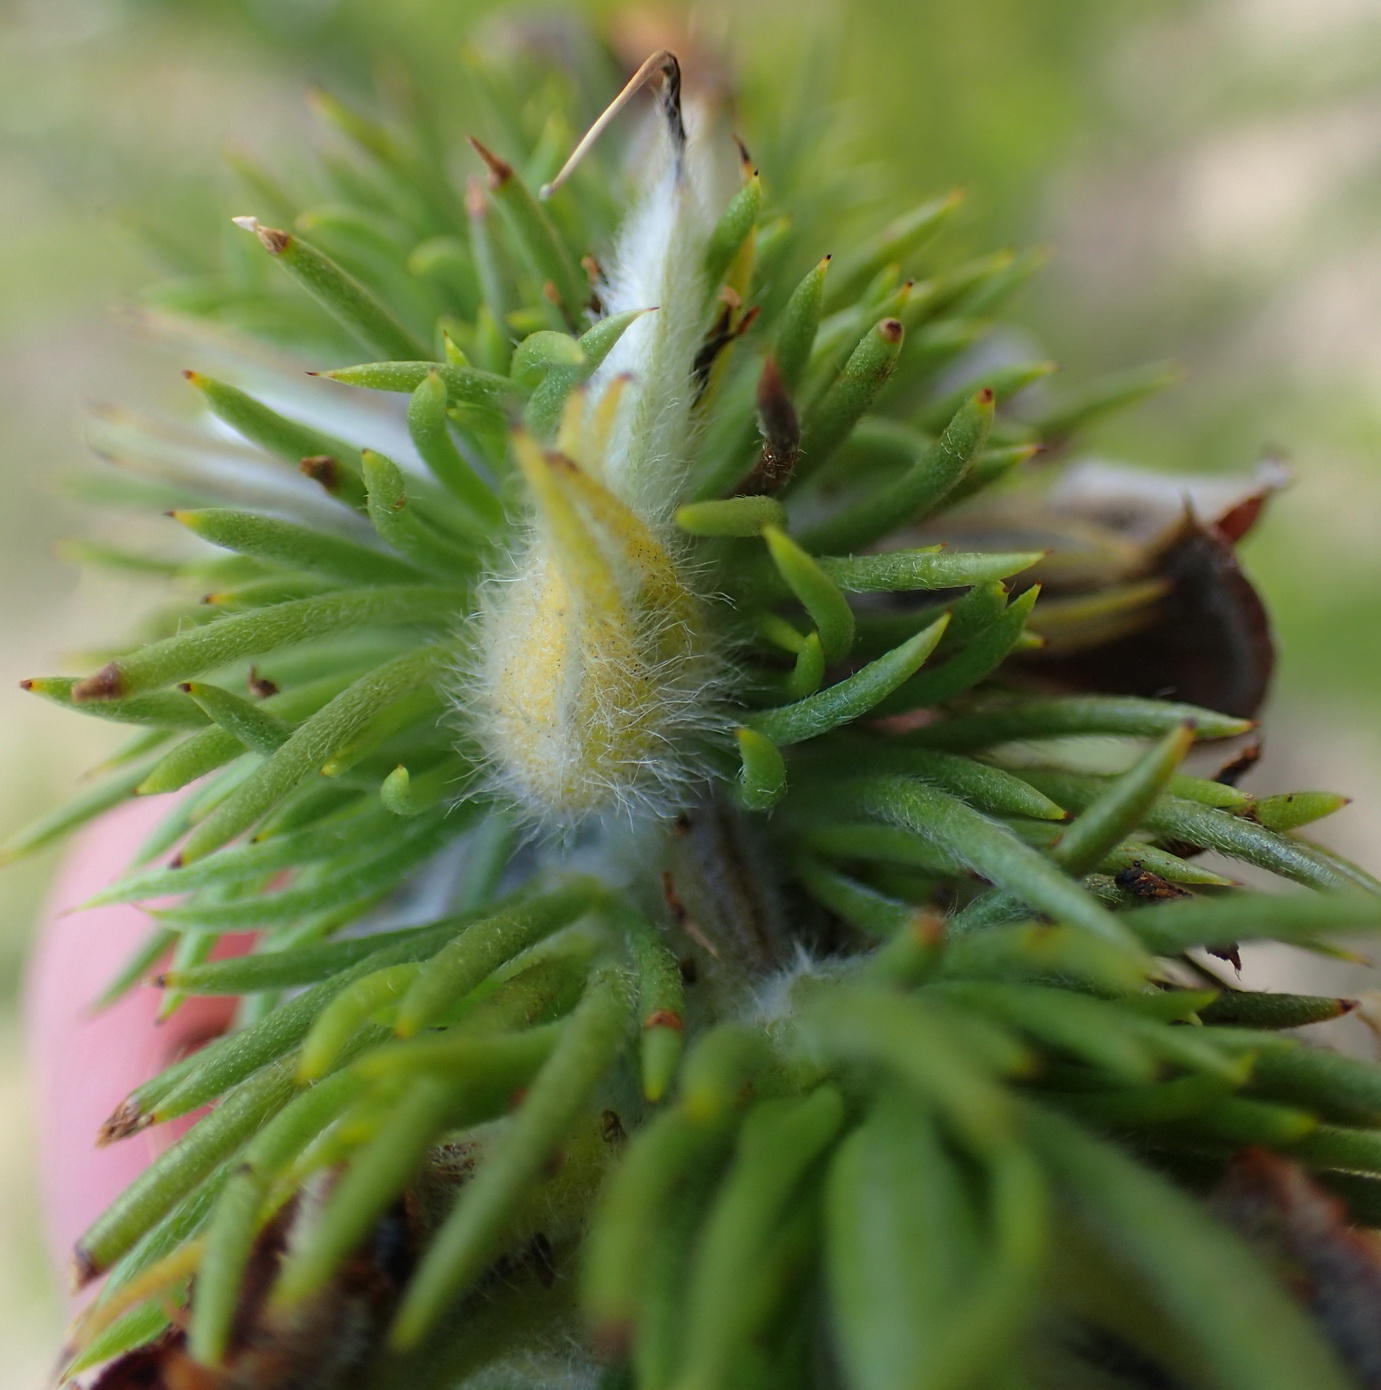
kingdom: Plantae
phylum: Tracheophyta
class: Magnoliopsida
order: Fabales
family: Fabaceae
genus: Aspalathus
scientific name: Aspalathus acanthes
